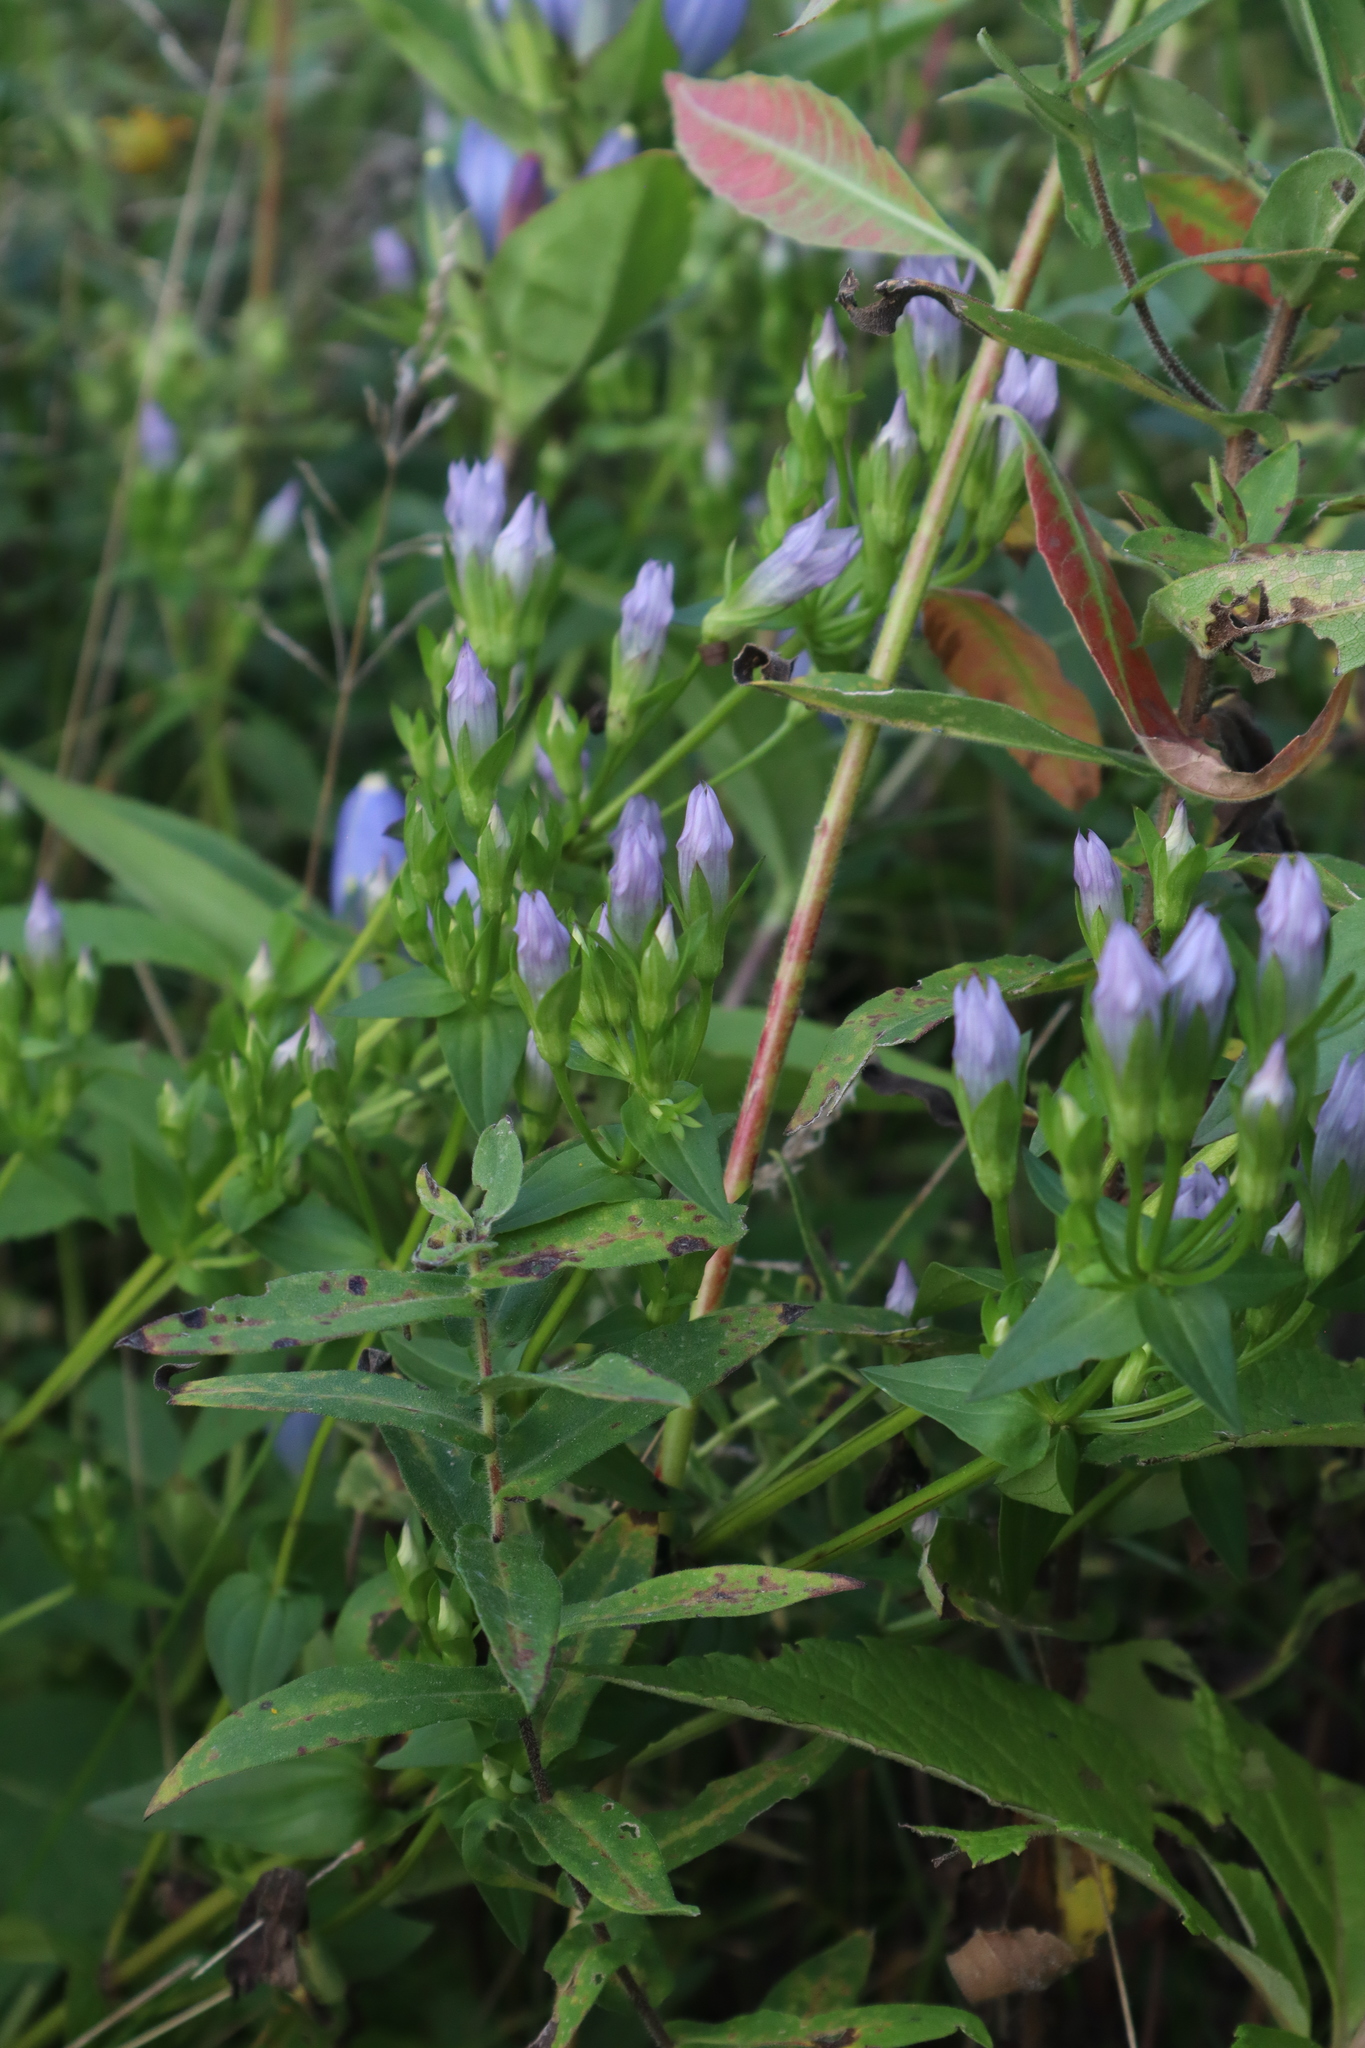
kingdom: Plantae
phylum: Tracheophyta
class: Magnoliopsida
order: Gentianales
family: Gentianaceae
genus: Gentianella
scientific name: Gentianella quinquefolia
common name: Agueweed
